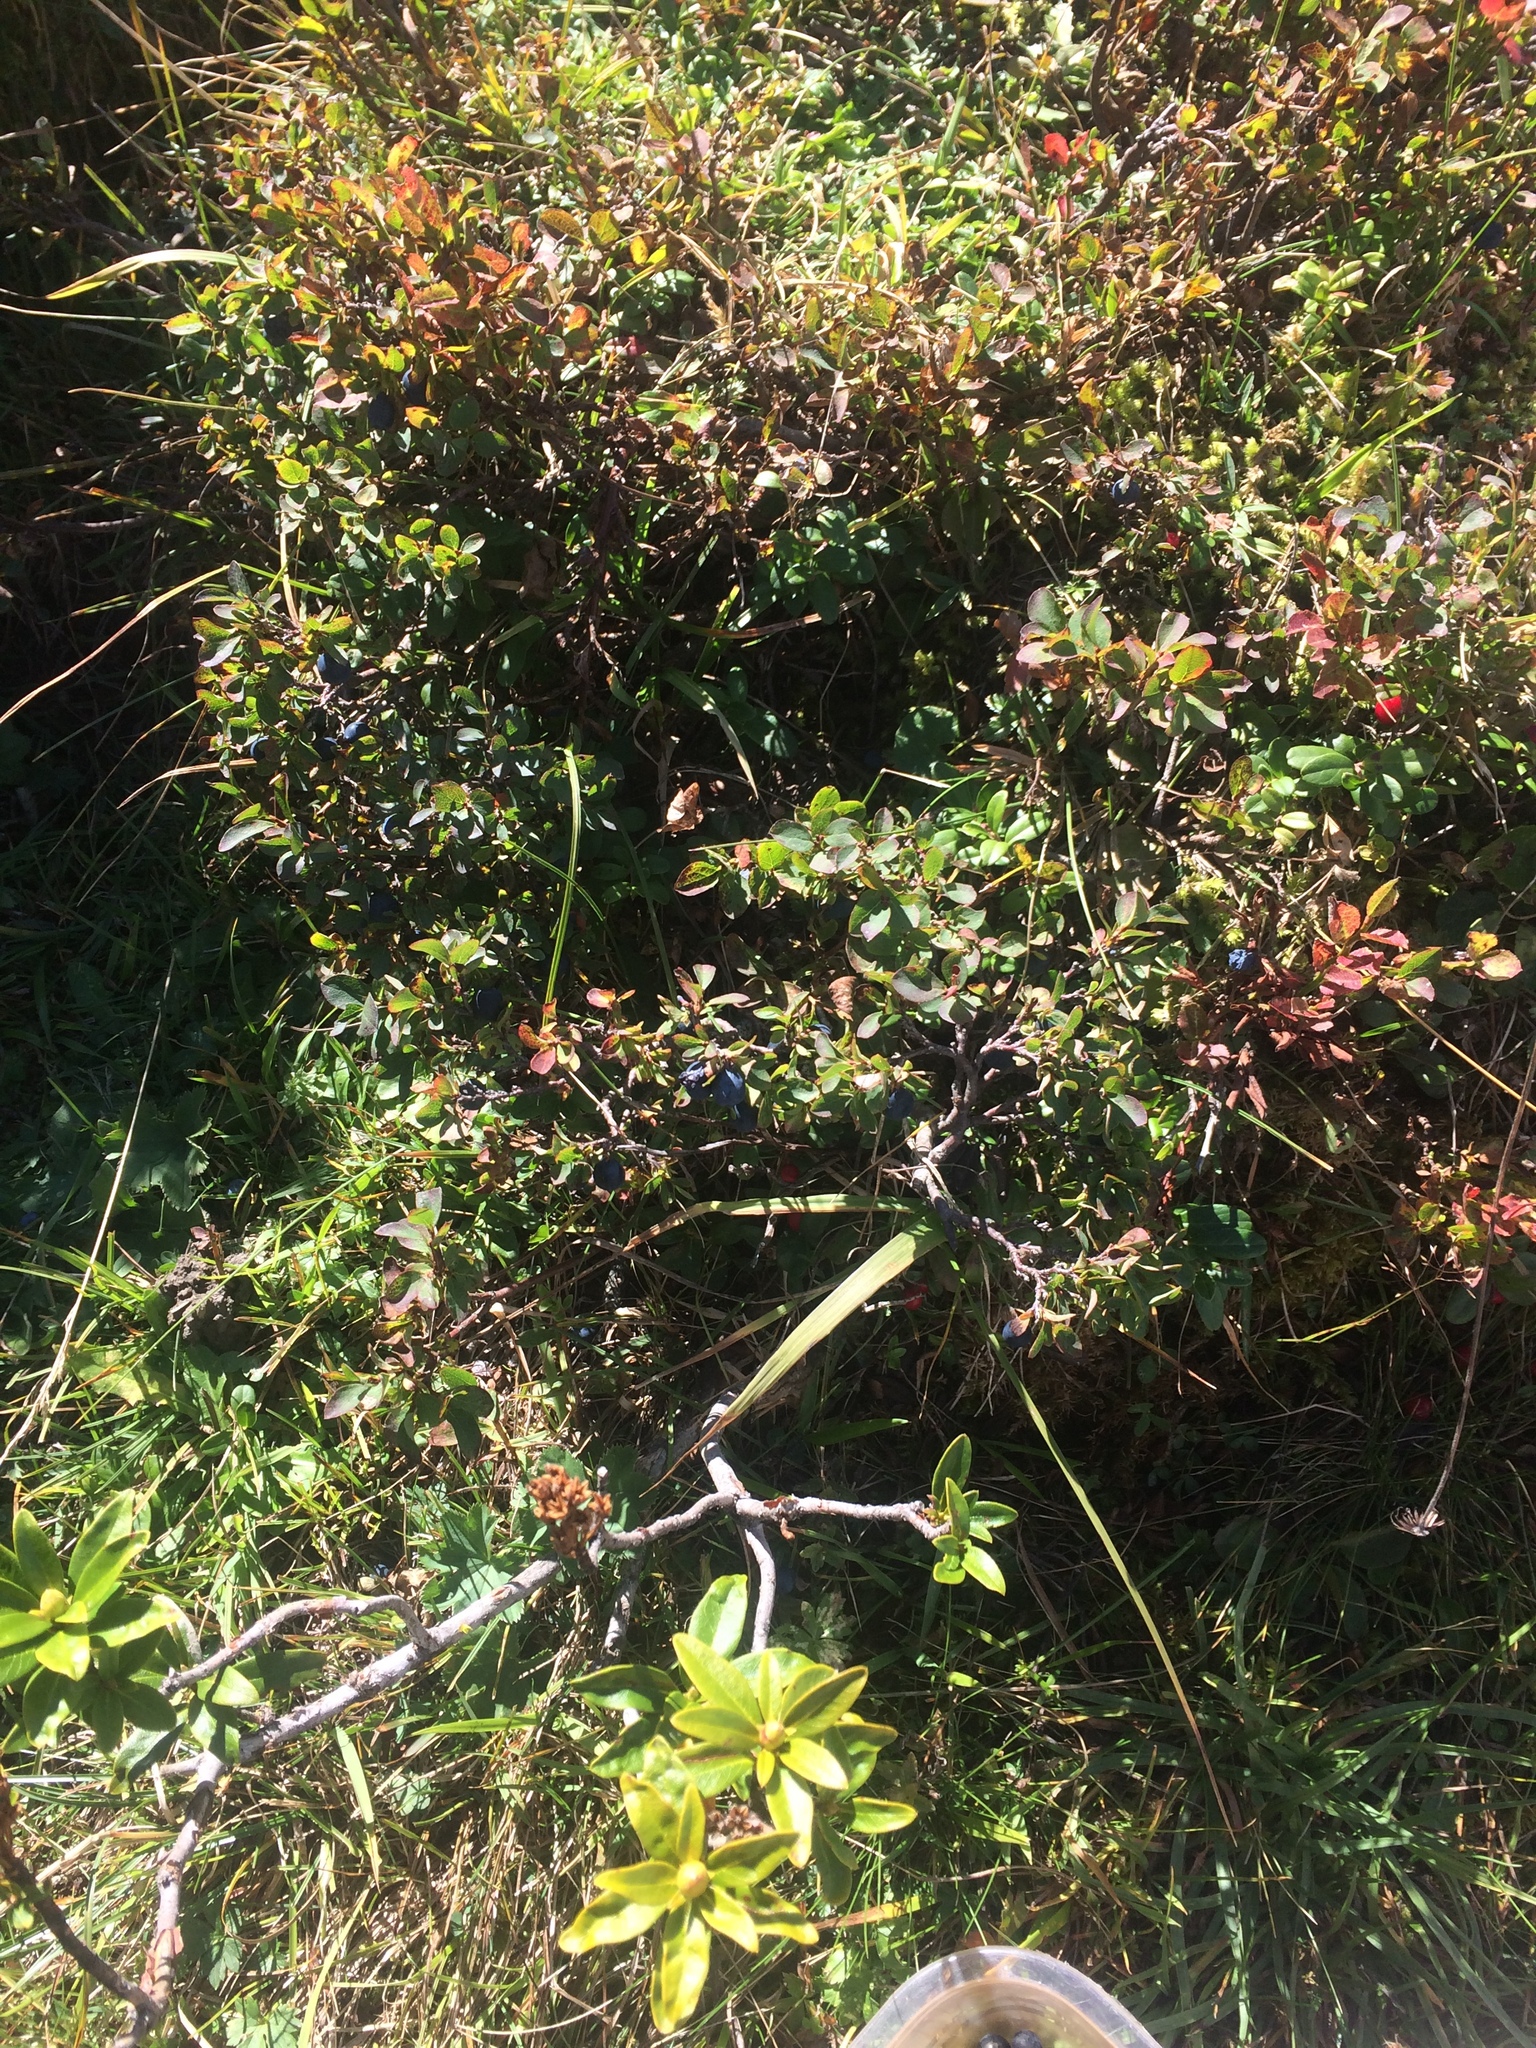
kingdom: Plantae
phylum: Tracheophyta
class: Magnoliopsida
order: Ericales
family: Ericaceae
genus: Vaccinium
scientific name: Vaccinium uliginosum
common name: Bog bilberry
